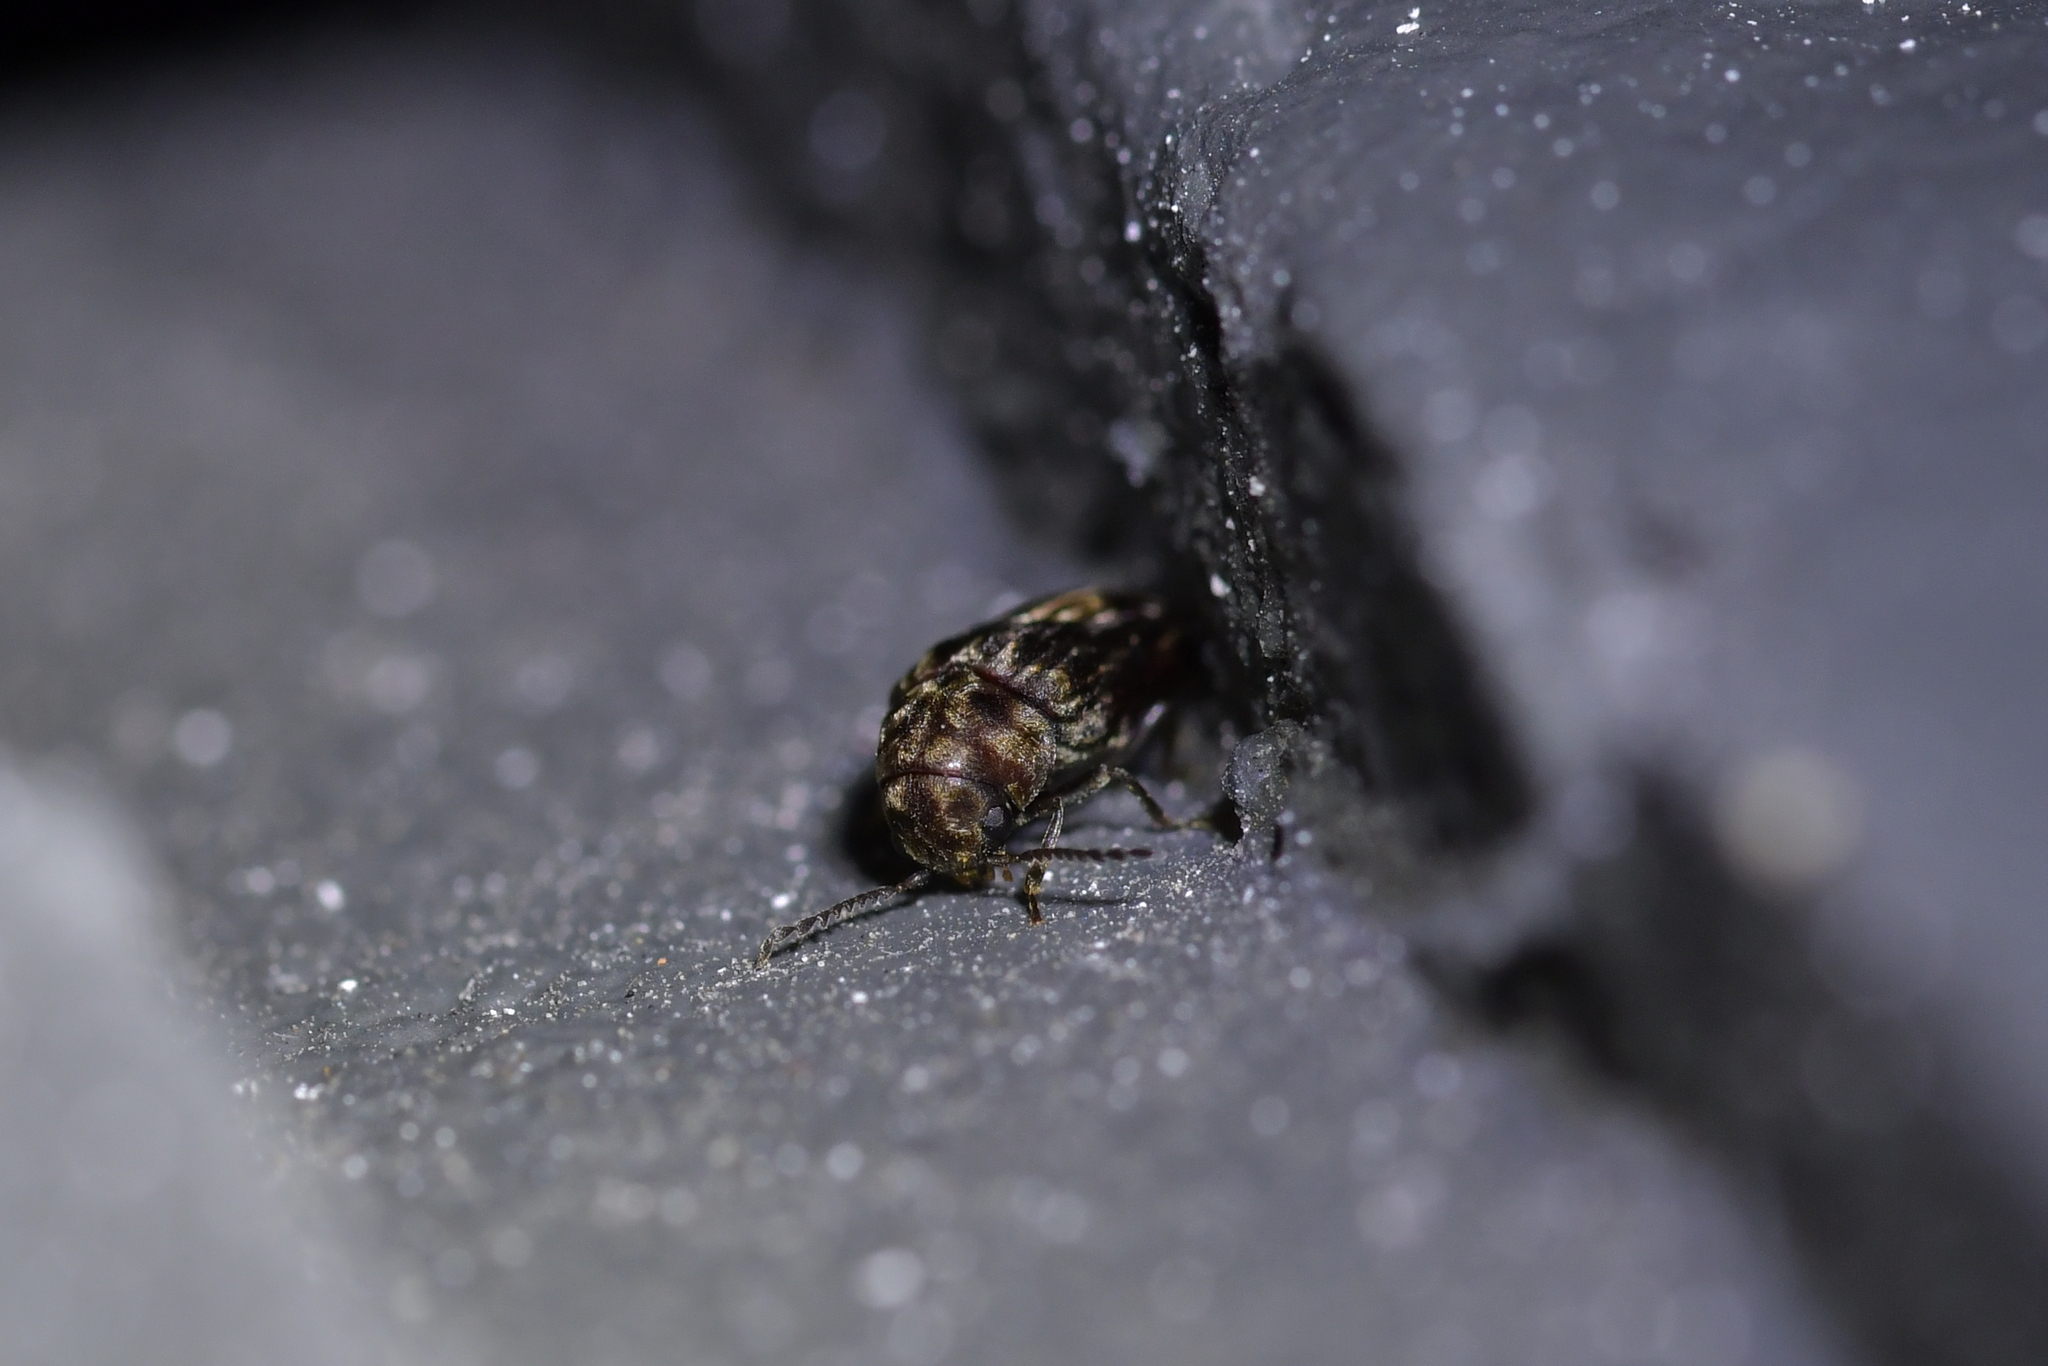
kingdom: Animalia
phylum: Arthropoda
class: Insecta
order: Coleoptera
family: Ptinidae
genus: Leanobium
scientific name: Leanobium
